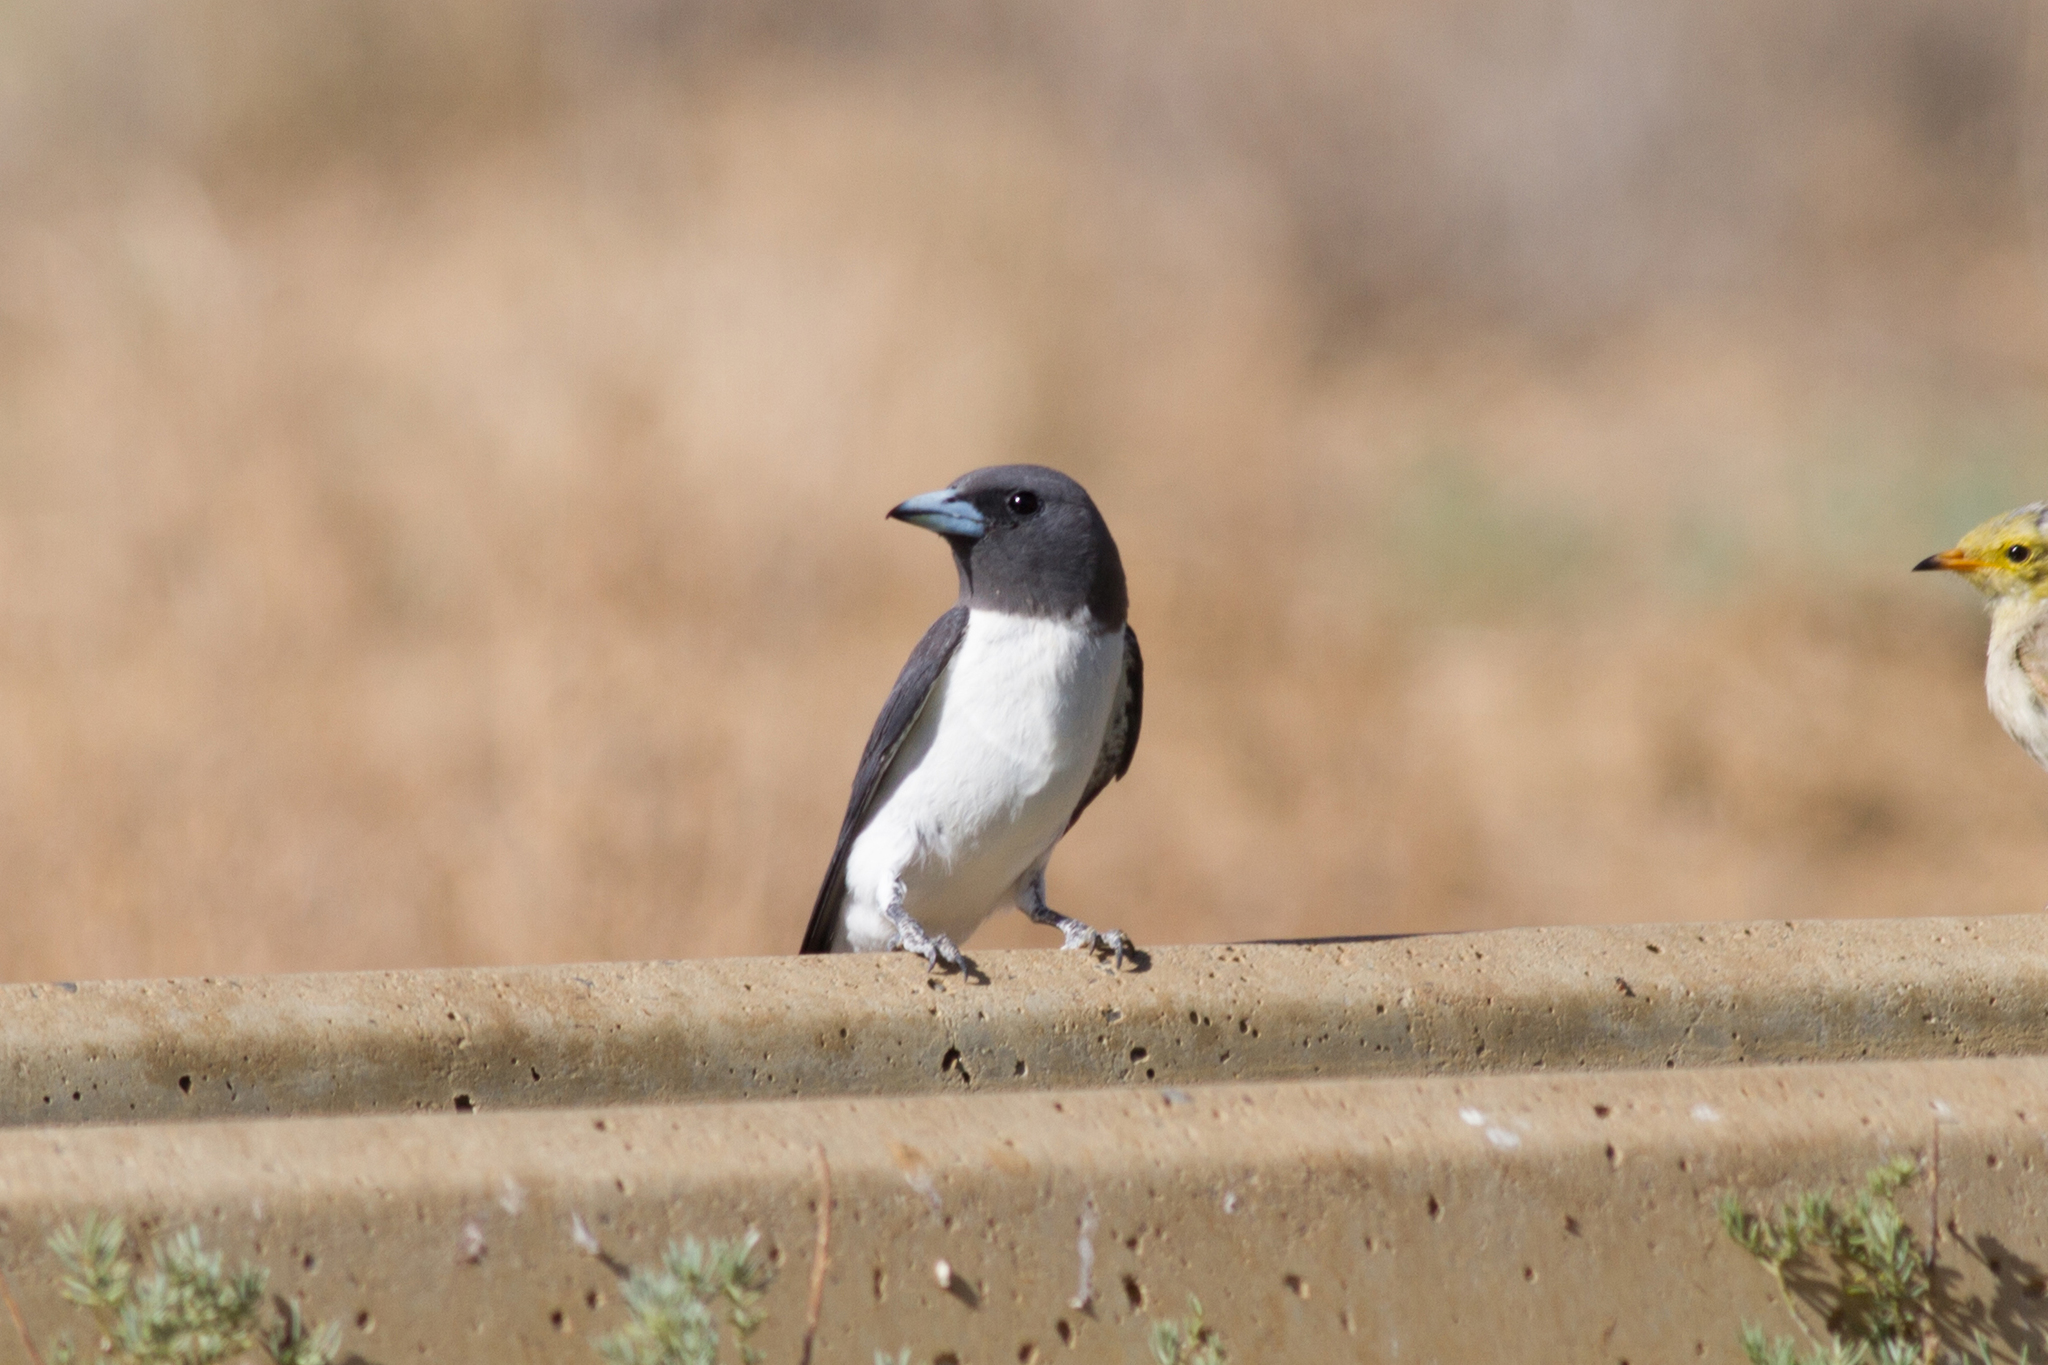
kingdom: Animalia
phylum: Chordata
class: Aves
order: Passeriformes
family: Artamidae
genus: Artamus
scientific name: Artamus leucoryn
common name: White-breasted woodswallow
